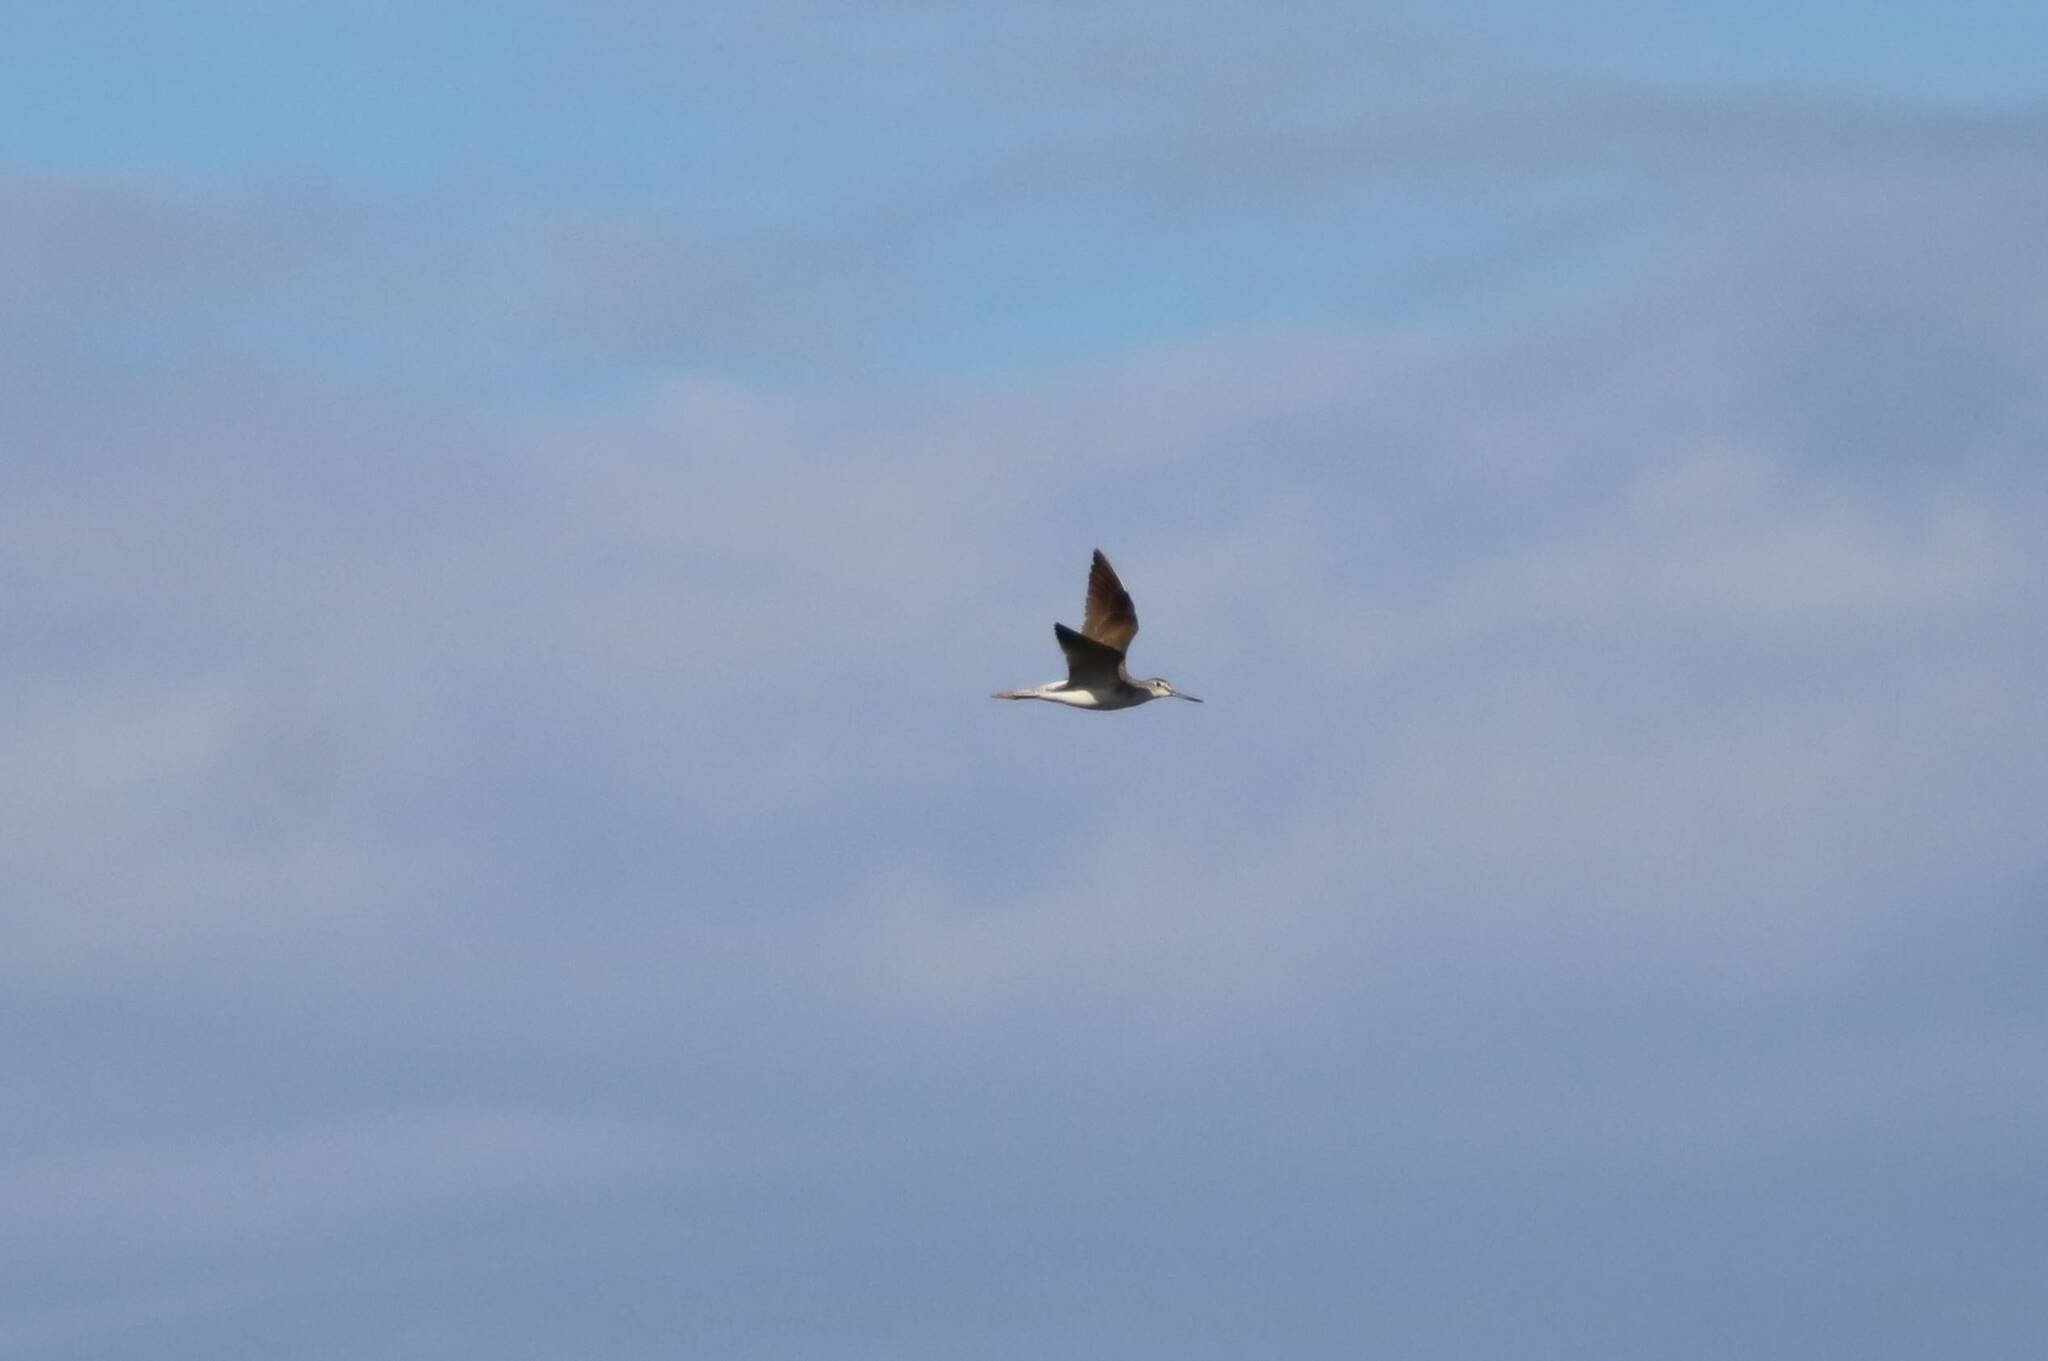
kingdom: Animalia
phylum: Chordata
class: Aves
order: Charadriiformes
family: Scolopacidae
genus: Tringa
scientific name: Tringa nebularia
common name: Common greenshank
